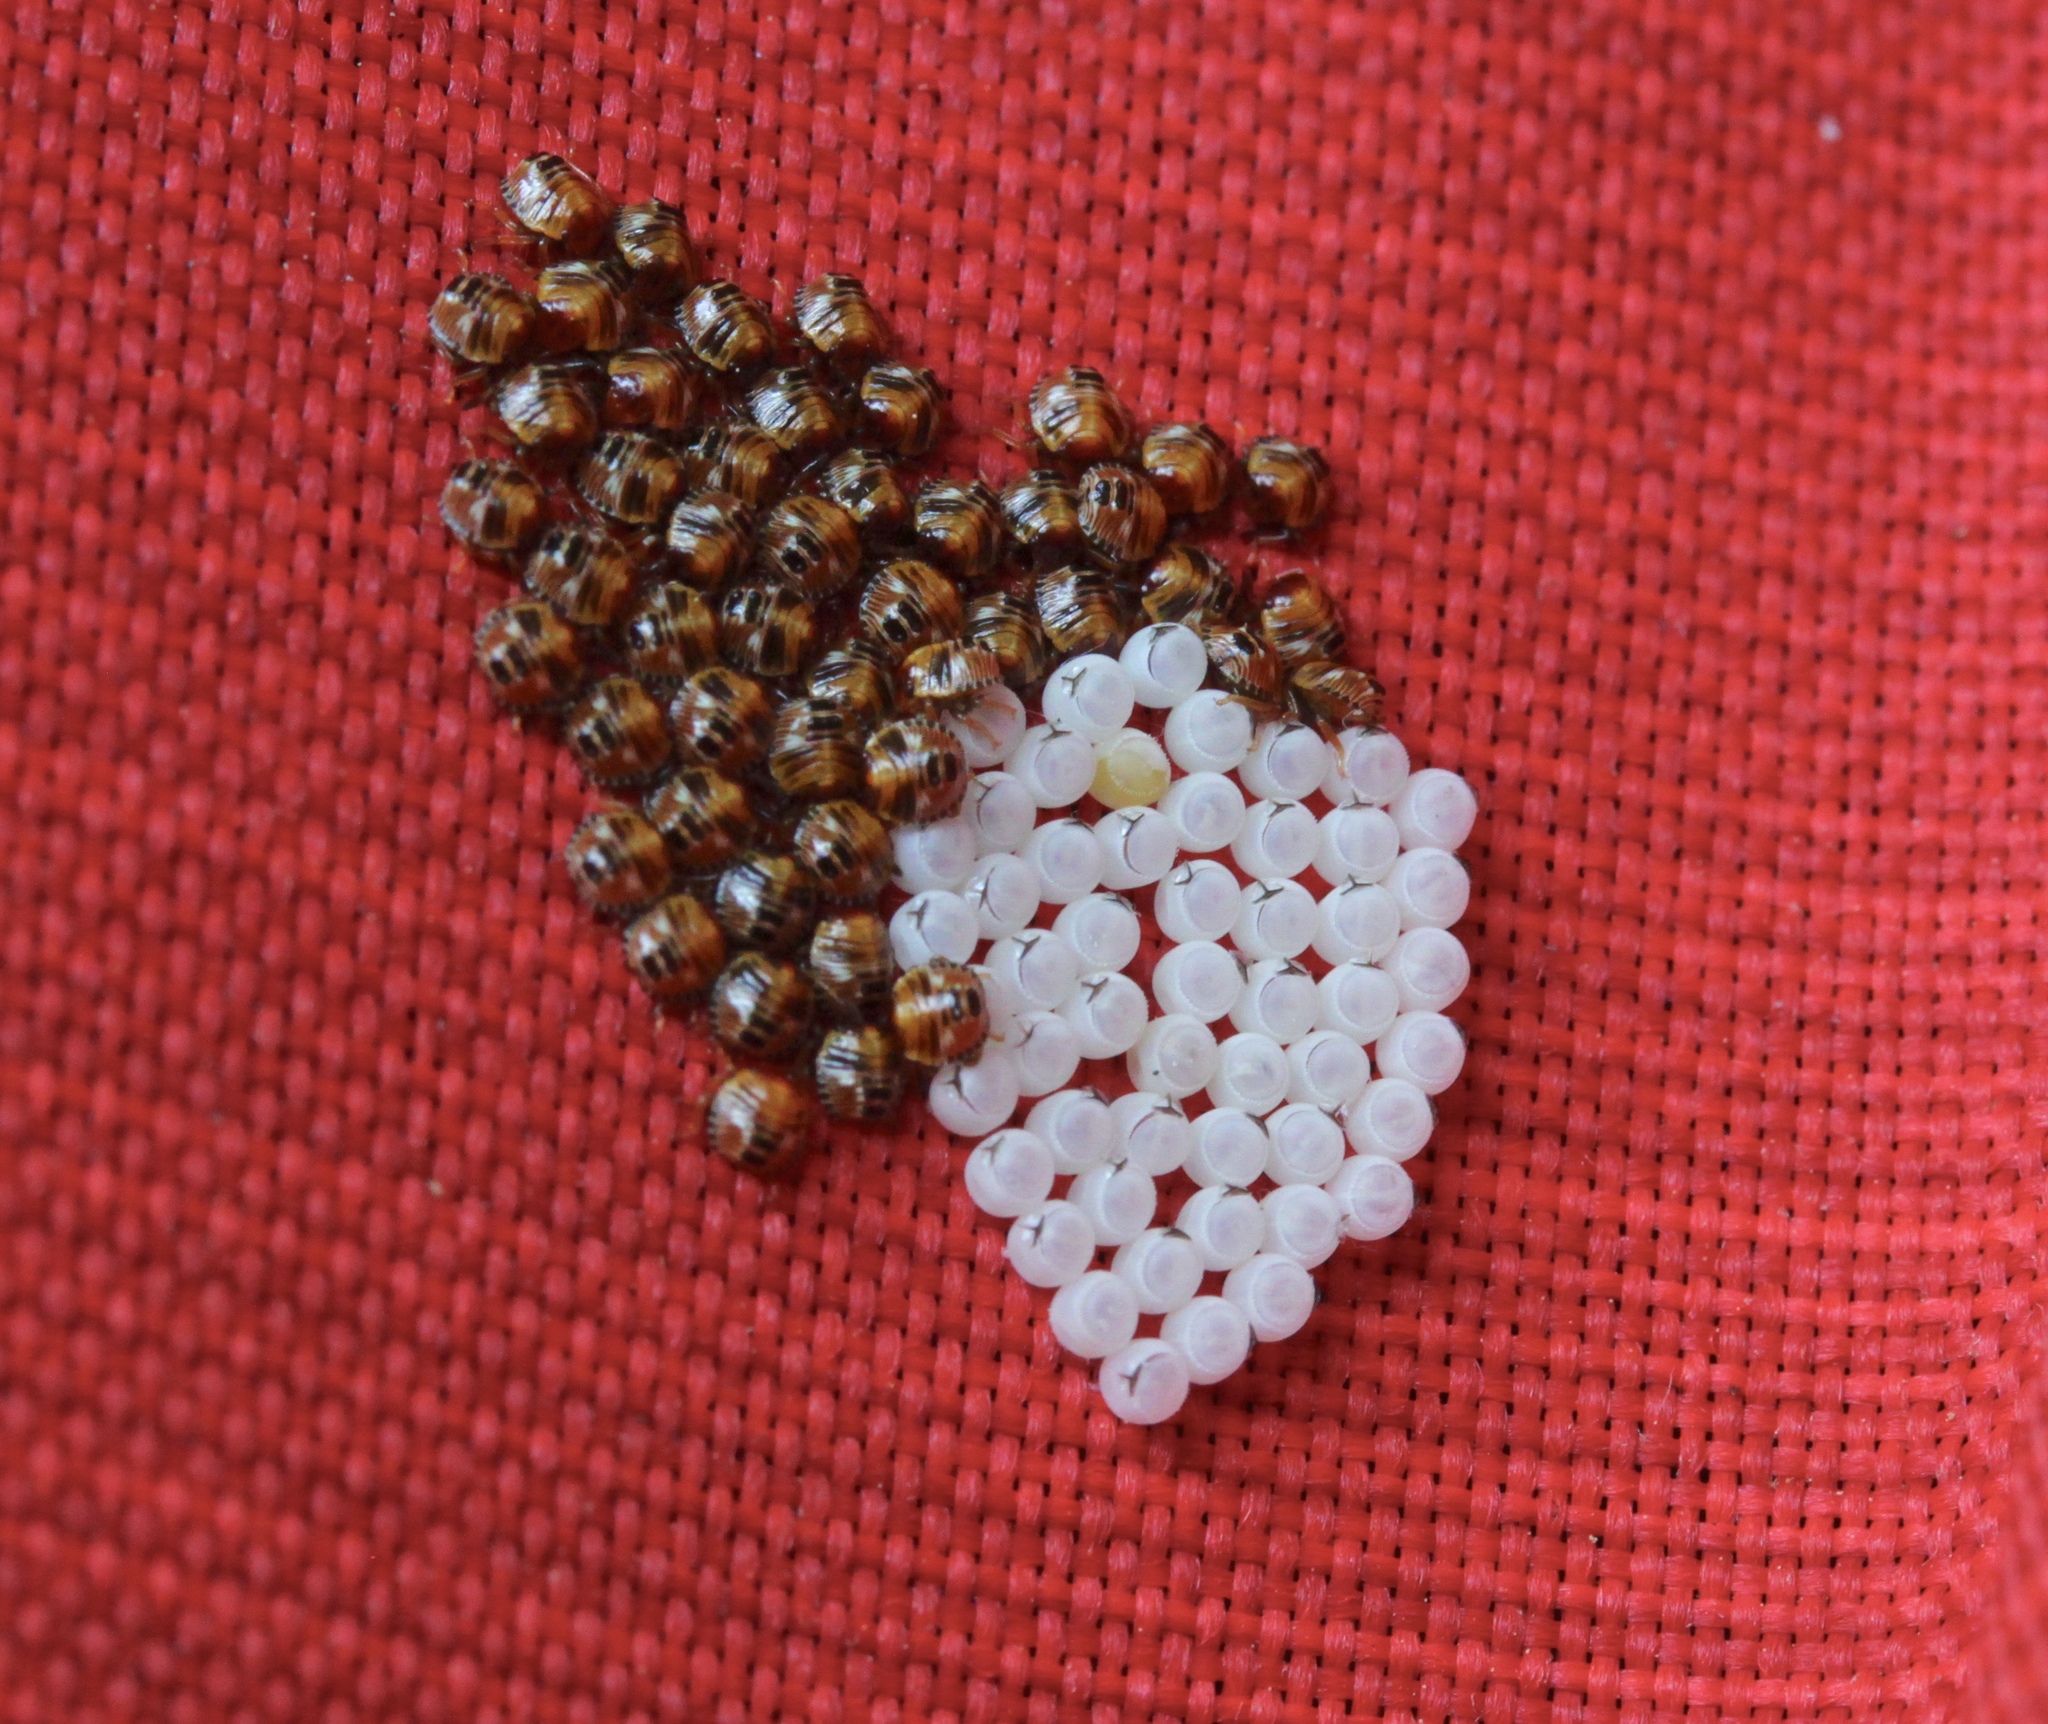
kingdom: Animalia
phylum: Arthropoda
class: Insecta
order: Hemiptera
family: Pentatomidae
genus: Chinavia
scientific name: Chinavia hilaris
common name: Green stink bug
